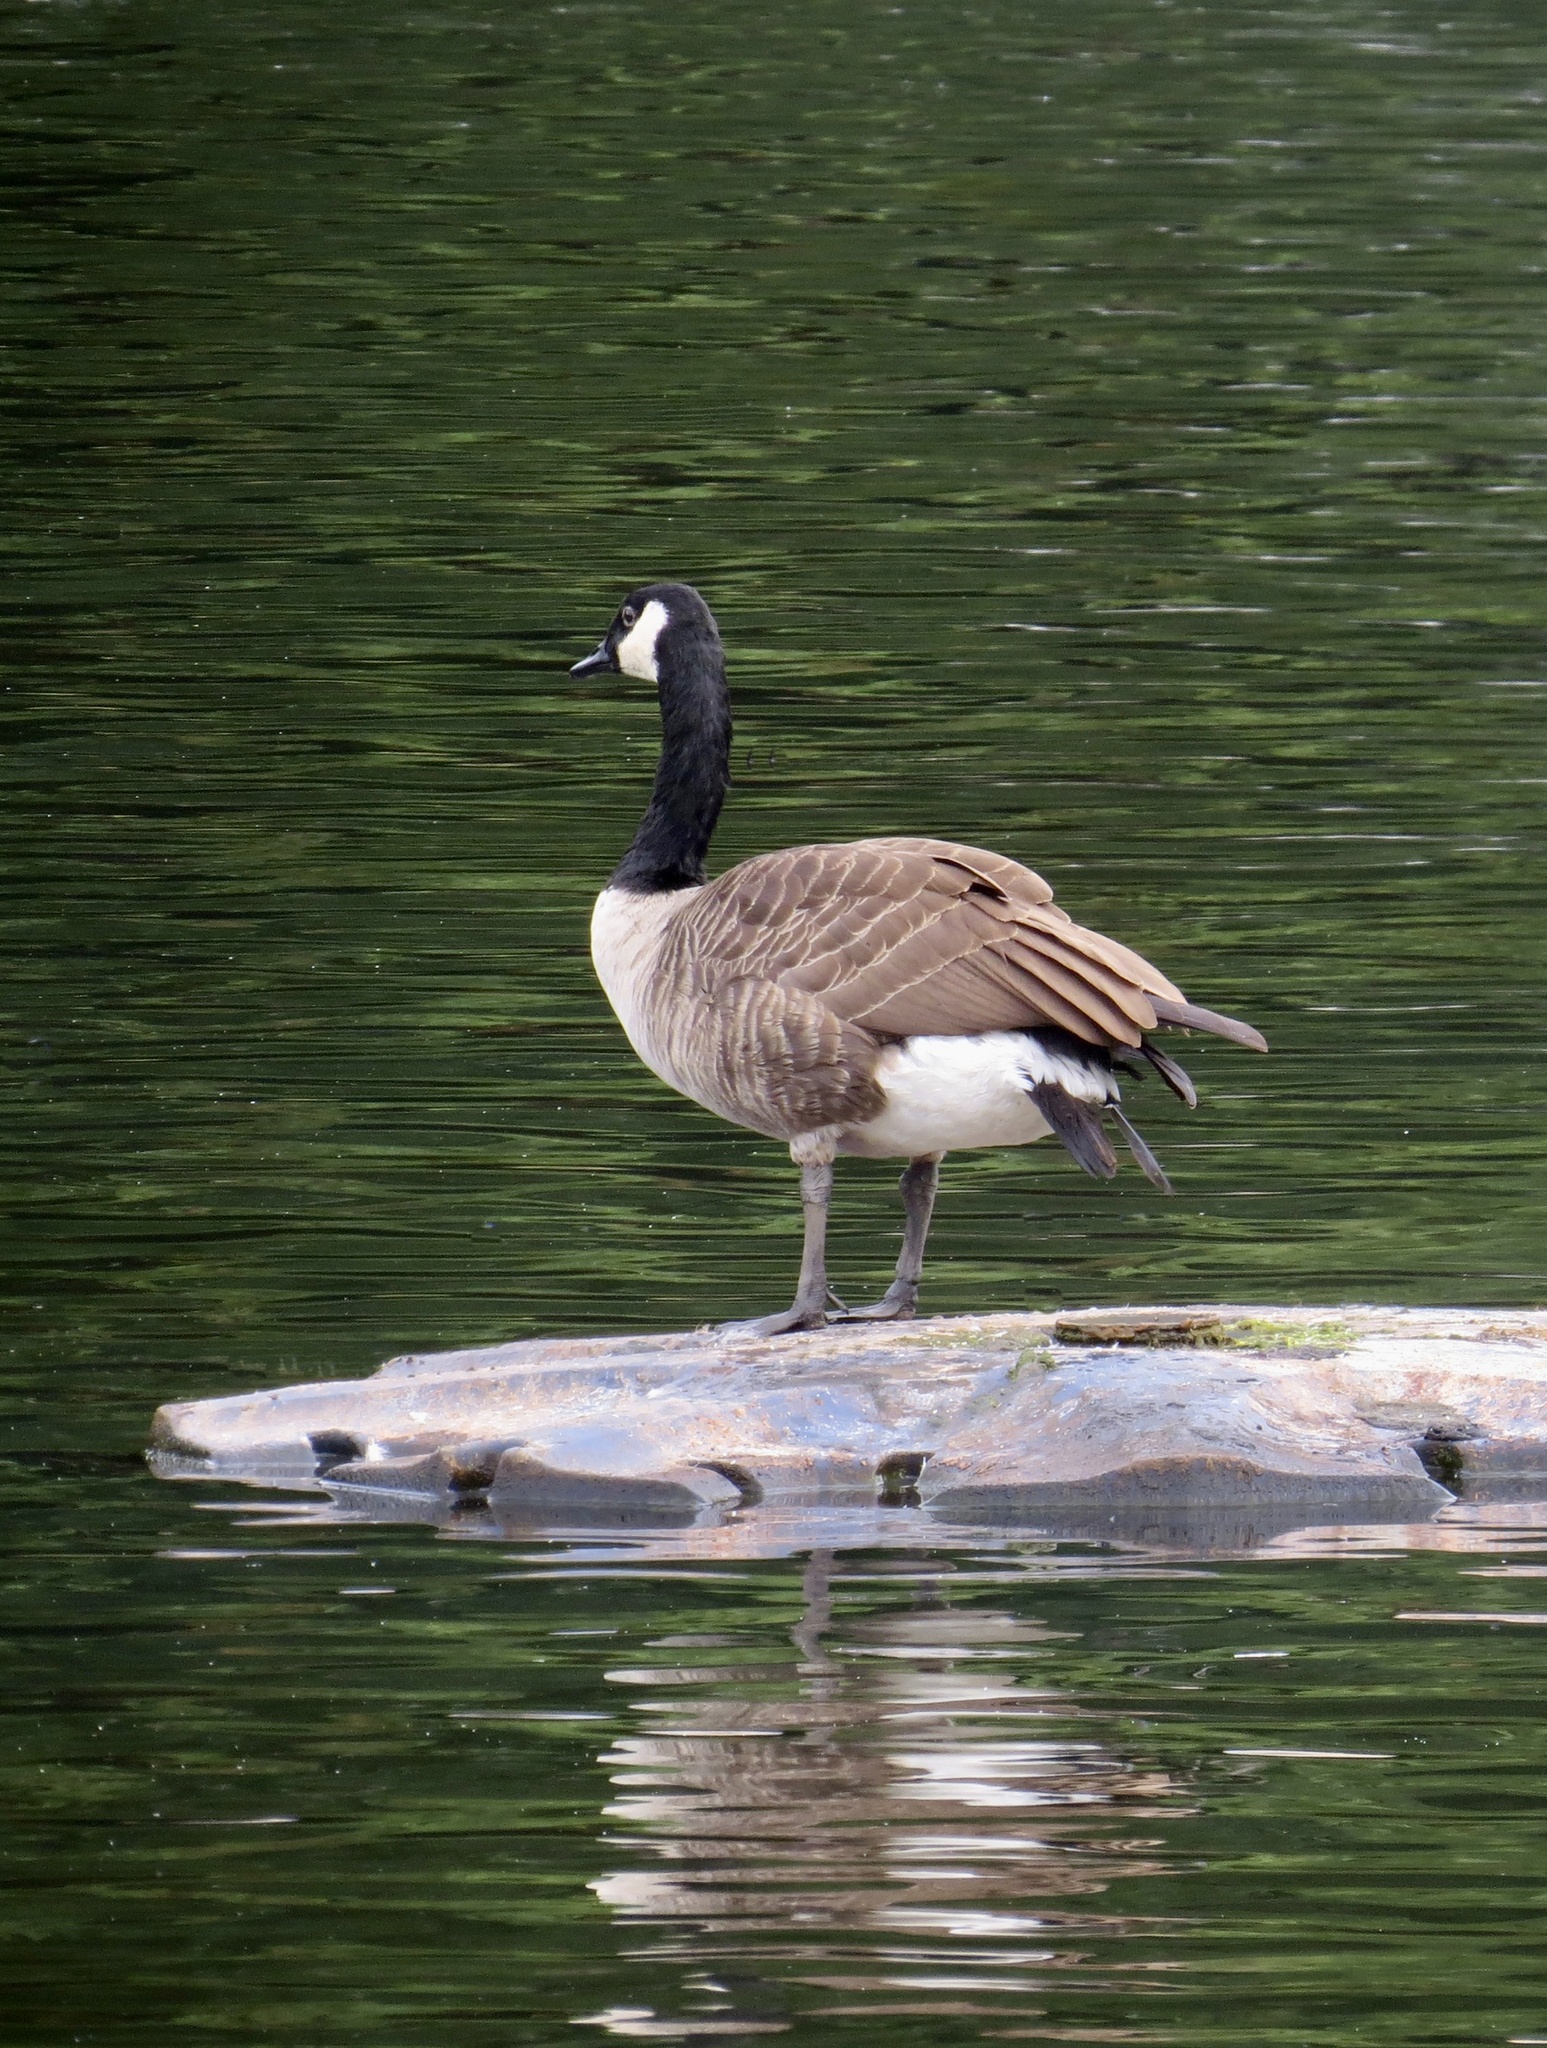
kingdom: Animalia
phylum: Chordata
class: Aves
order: Anseriformes
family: Anatidae
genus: Branta
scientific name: Branta canadensis
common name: Canada goose
